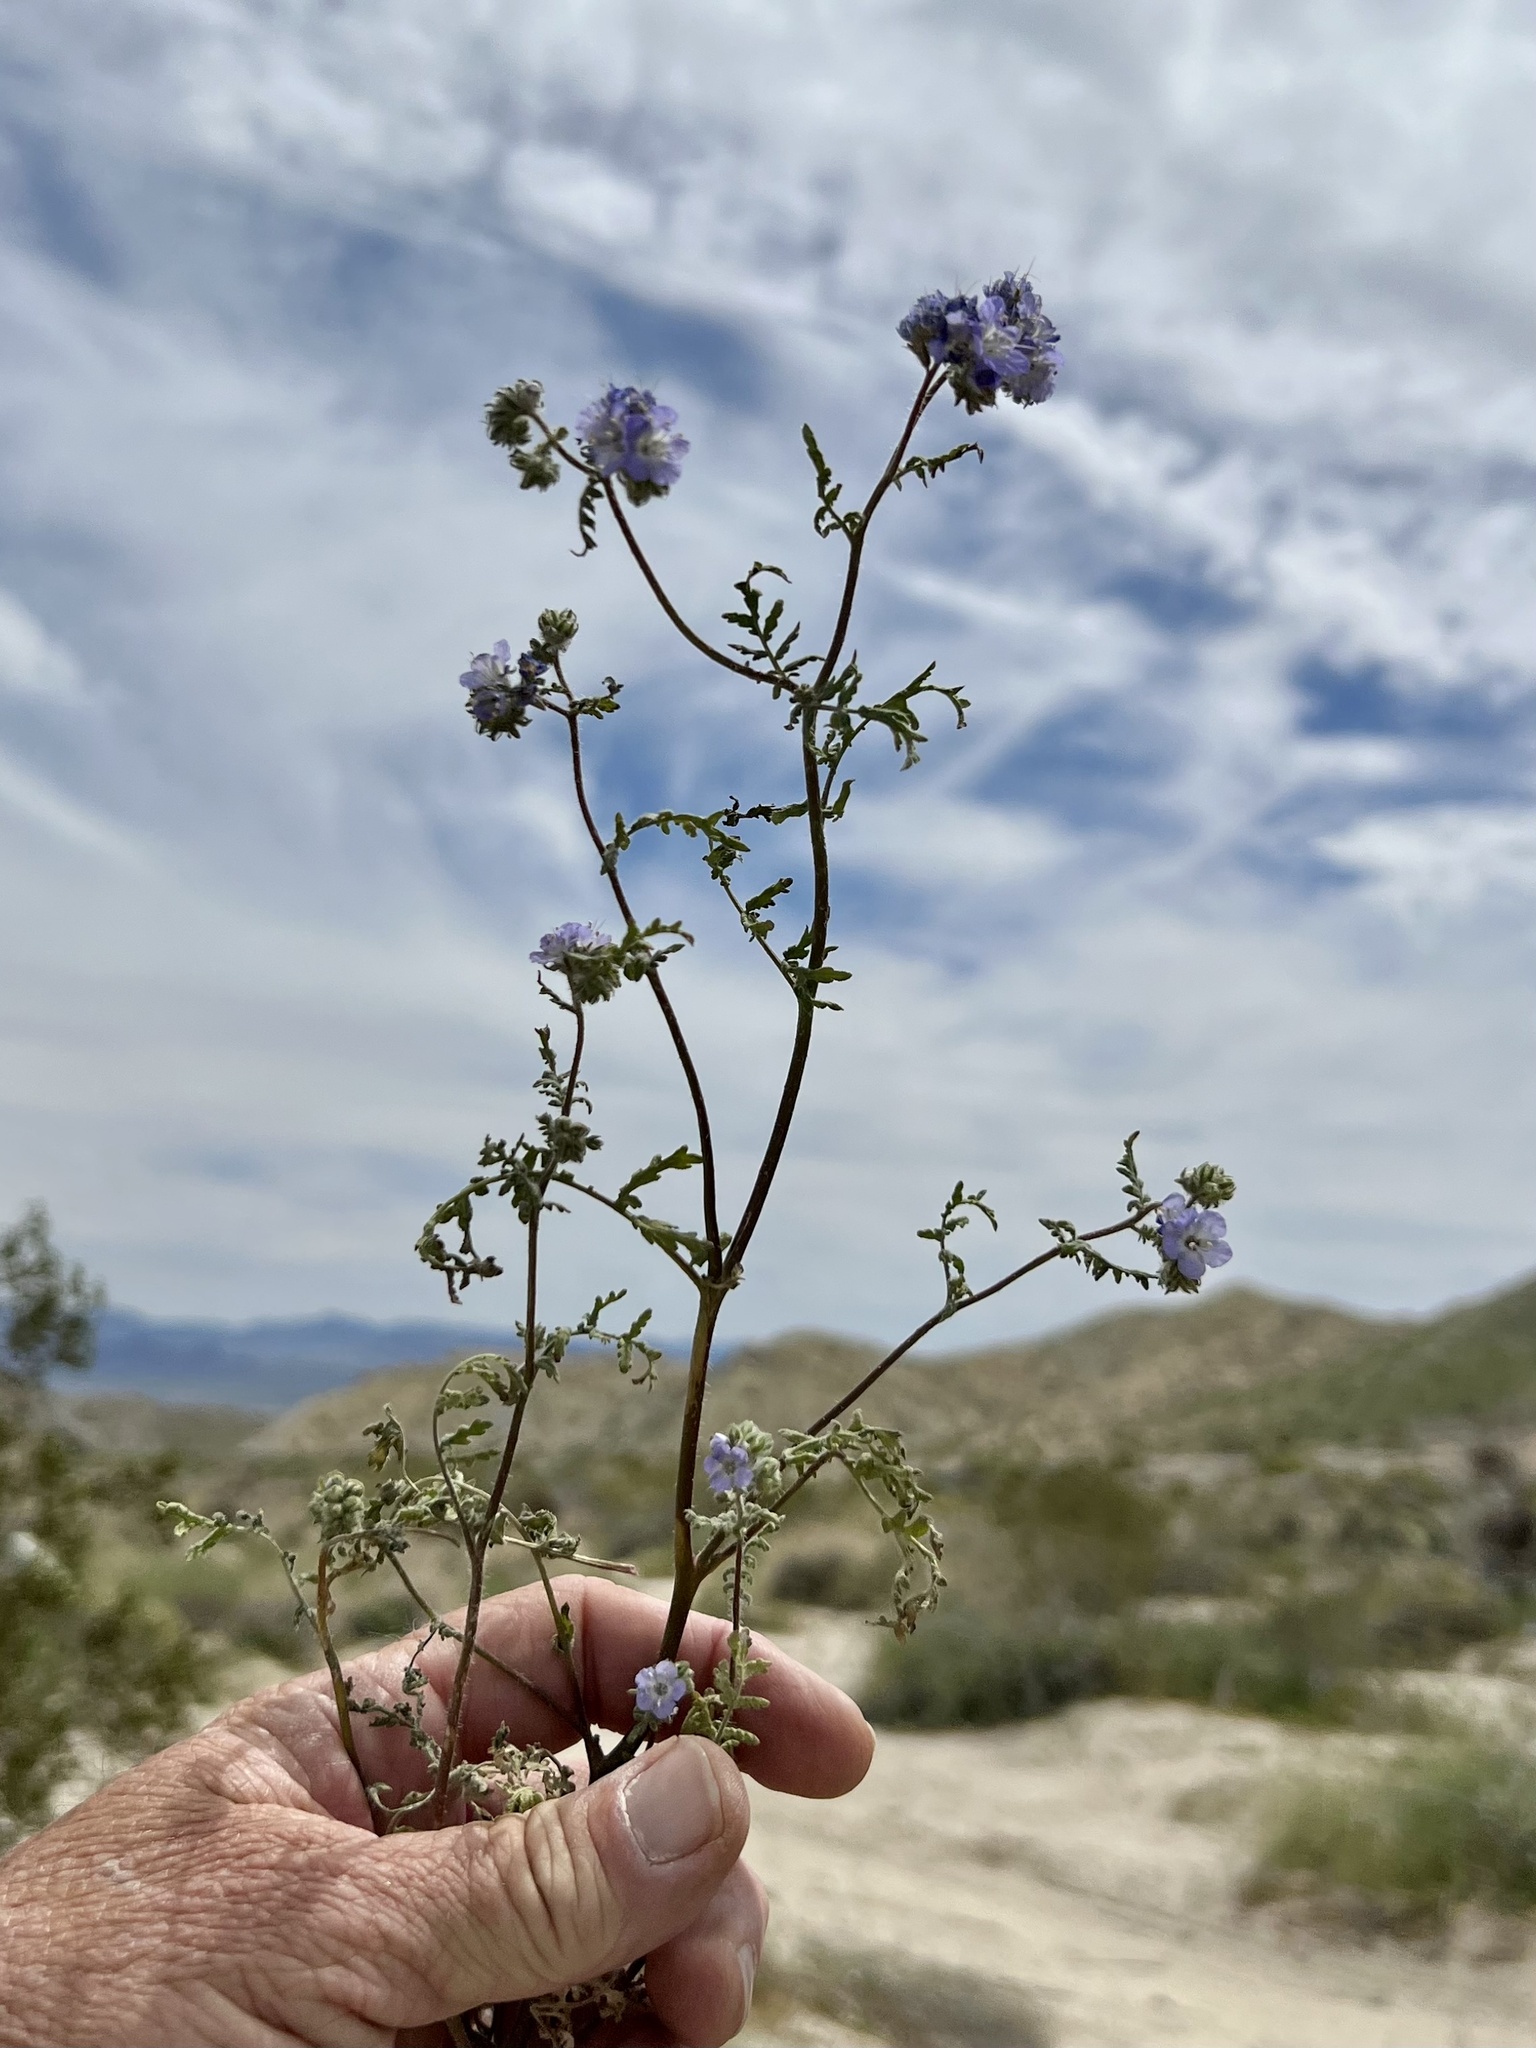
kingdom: Plantae
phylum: Tracheophyta
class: Magnoliopsida
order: Boraginales
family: Hydrophyllaceae
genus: Phacelia
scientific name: Phacelia distans
